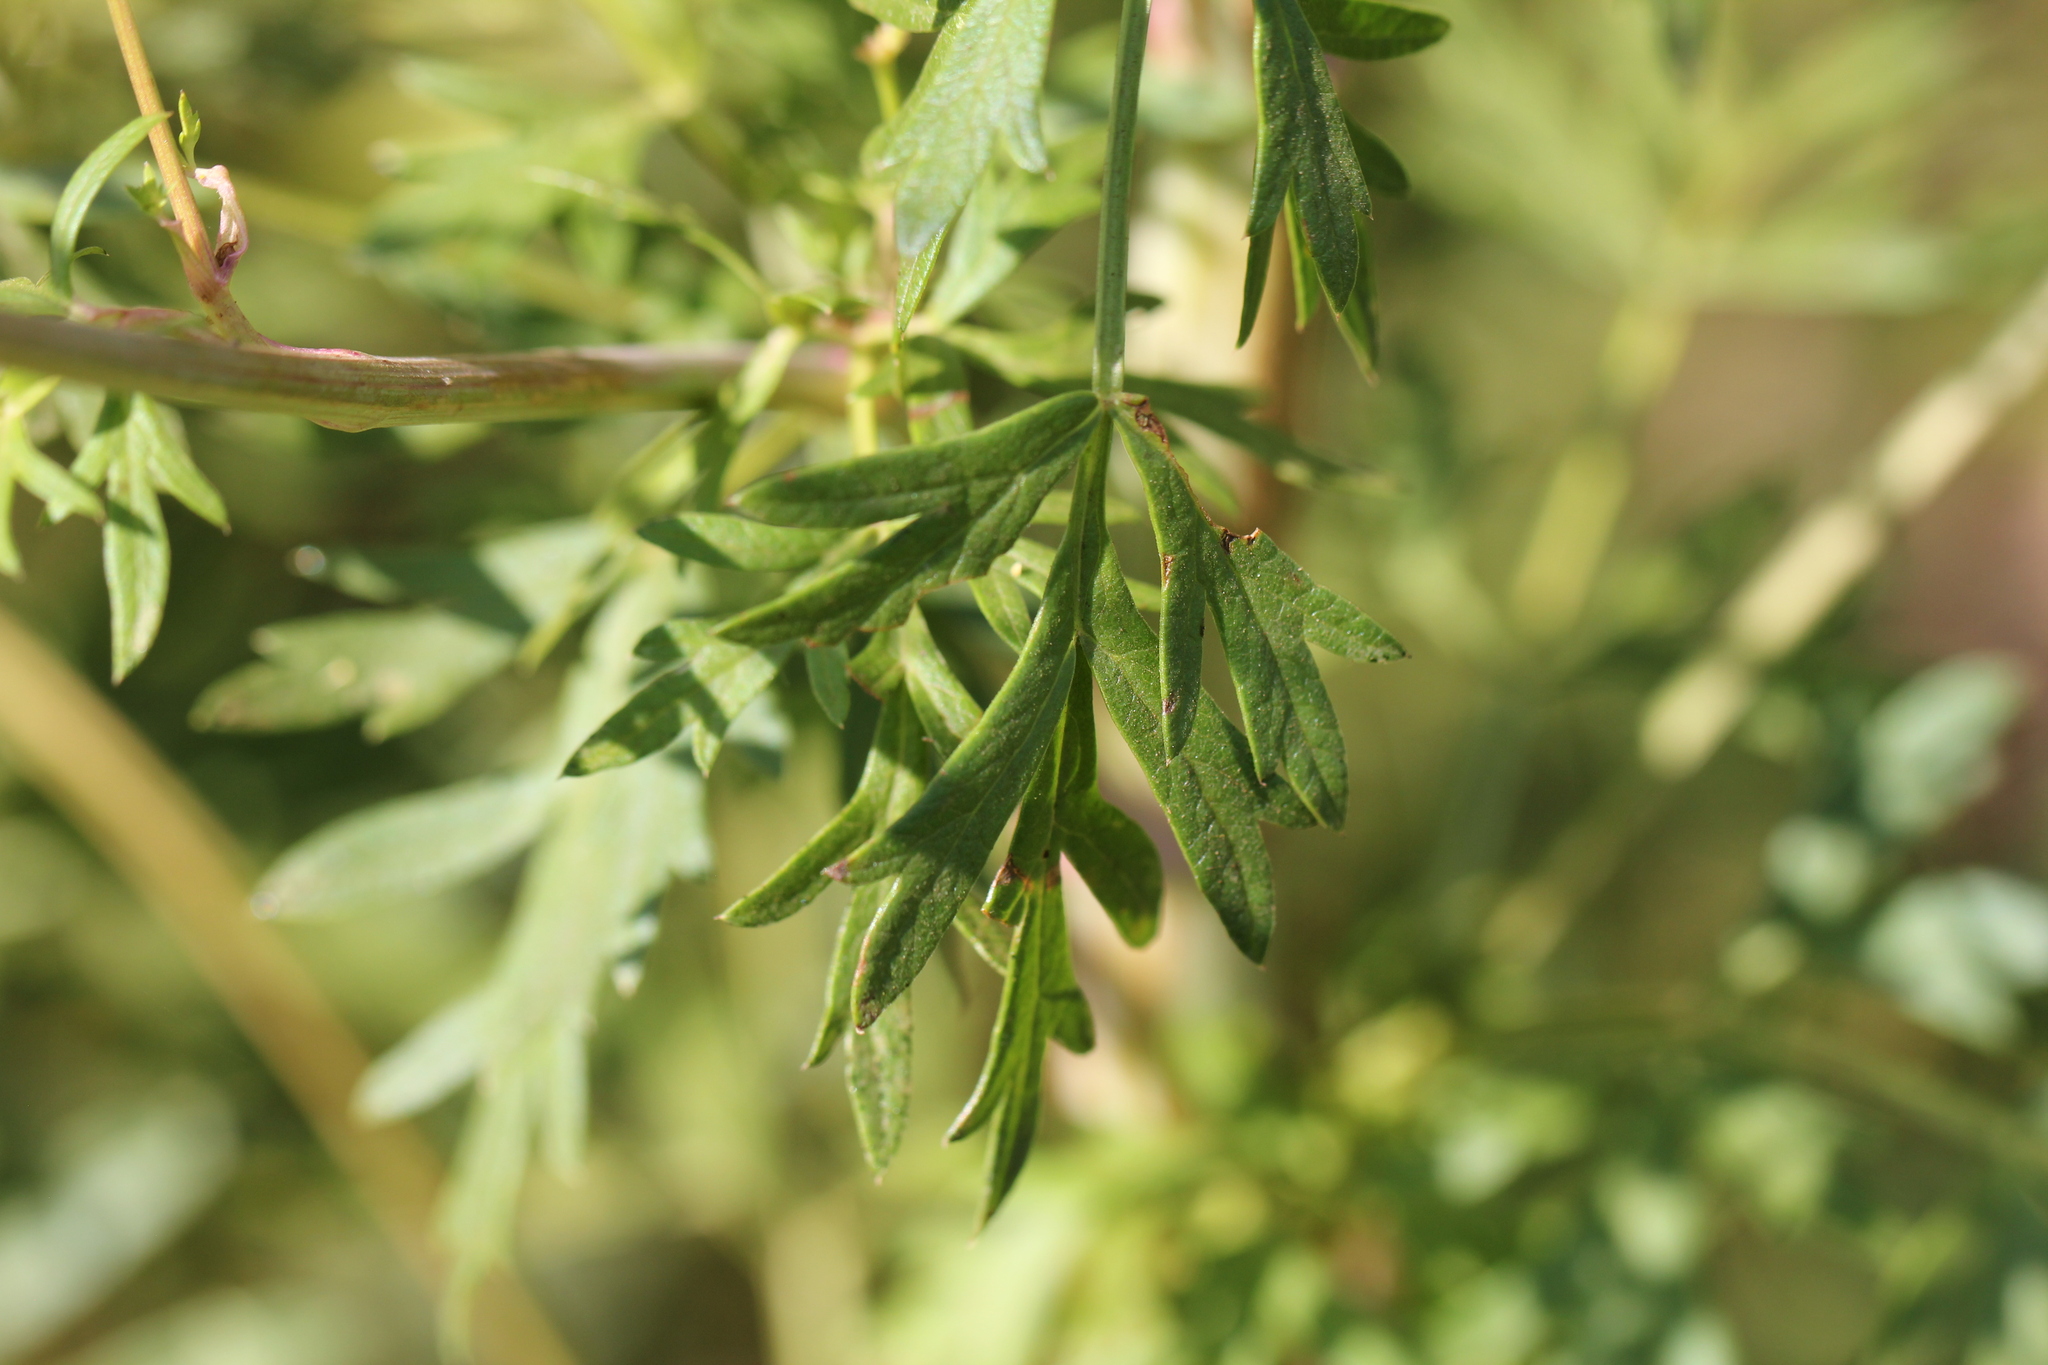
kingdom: Plantae
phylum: Tracheophyta
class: Magnoliopsida
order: Apiales
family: Apiaceae
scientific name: Apiaceae
